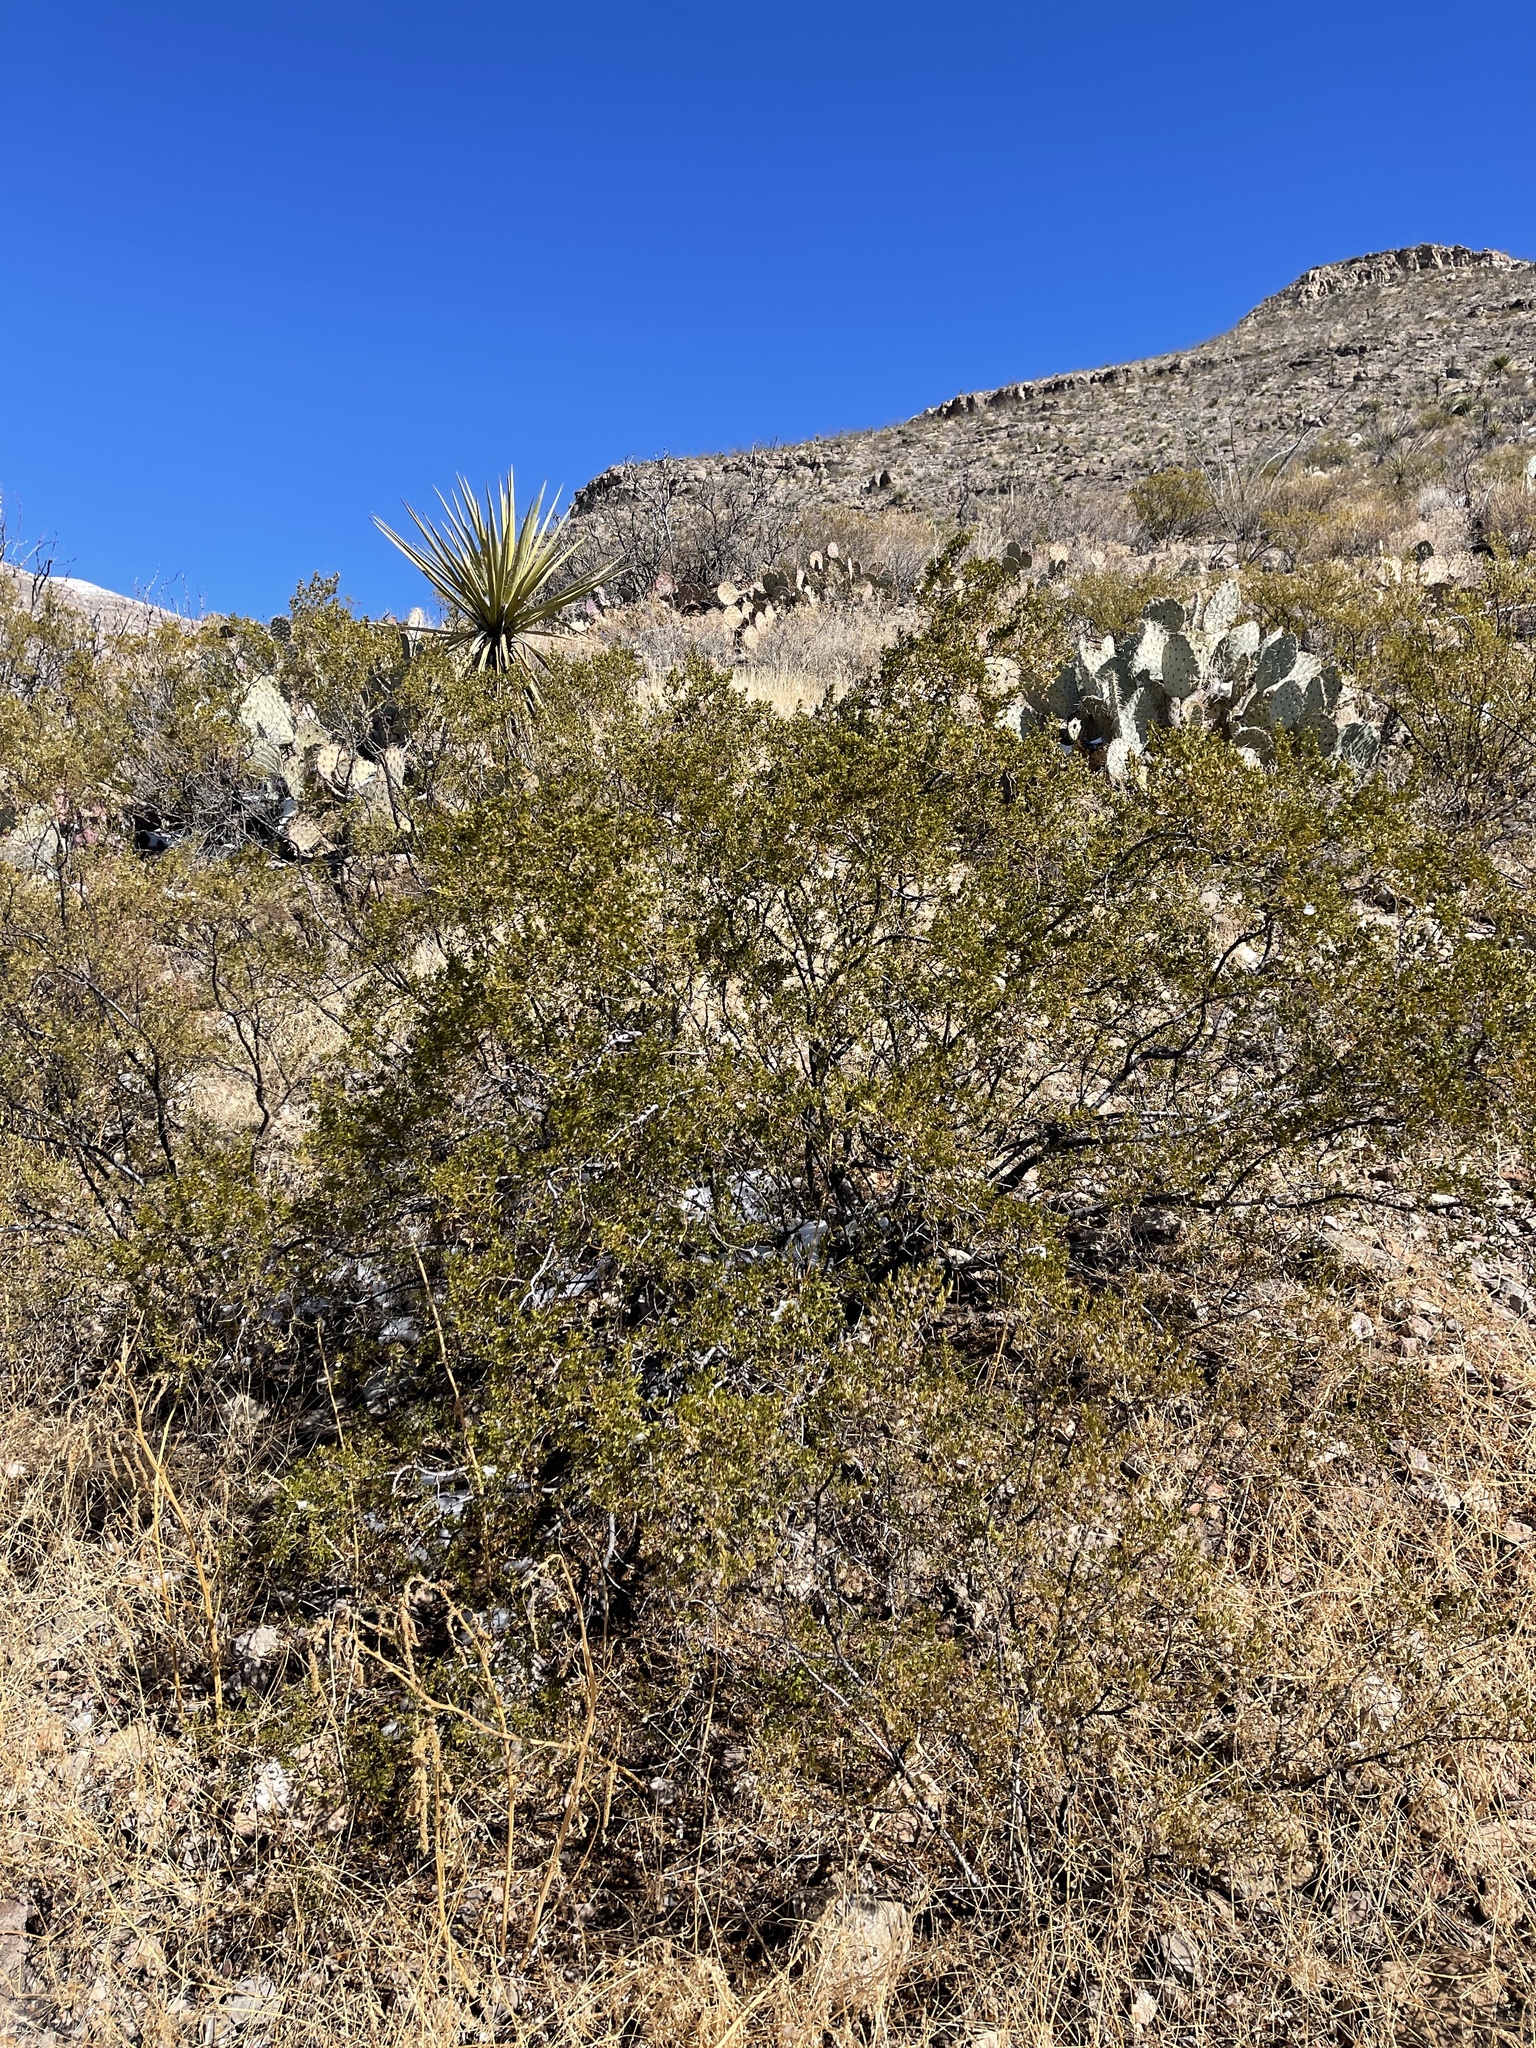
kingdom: Plantae
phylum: Tracheophyta
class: Magnoliopsida
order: Zygophyllales
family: Zygophyllaceae
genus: Larrea
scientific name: Larrea tridentata
